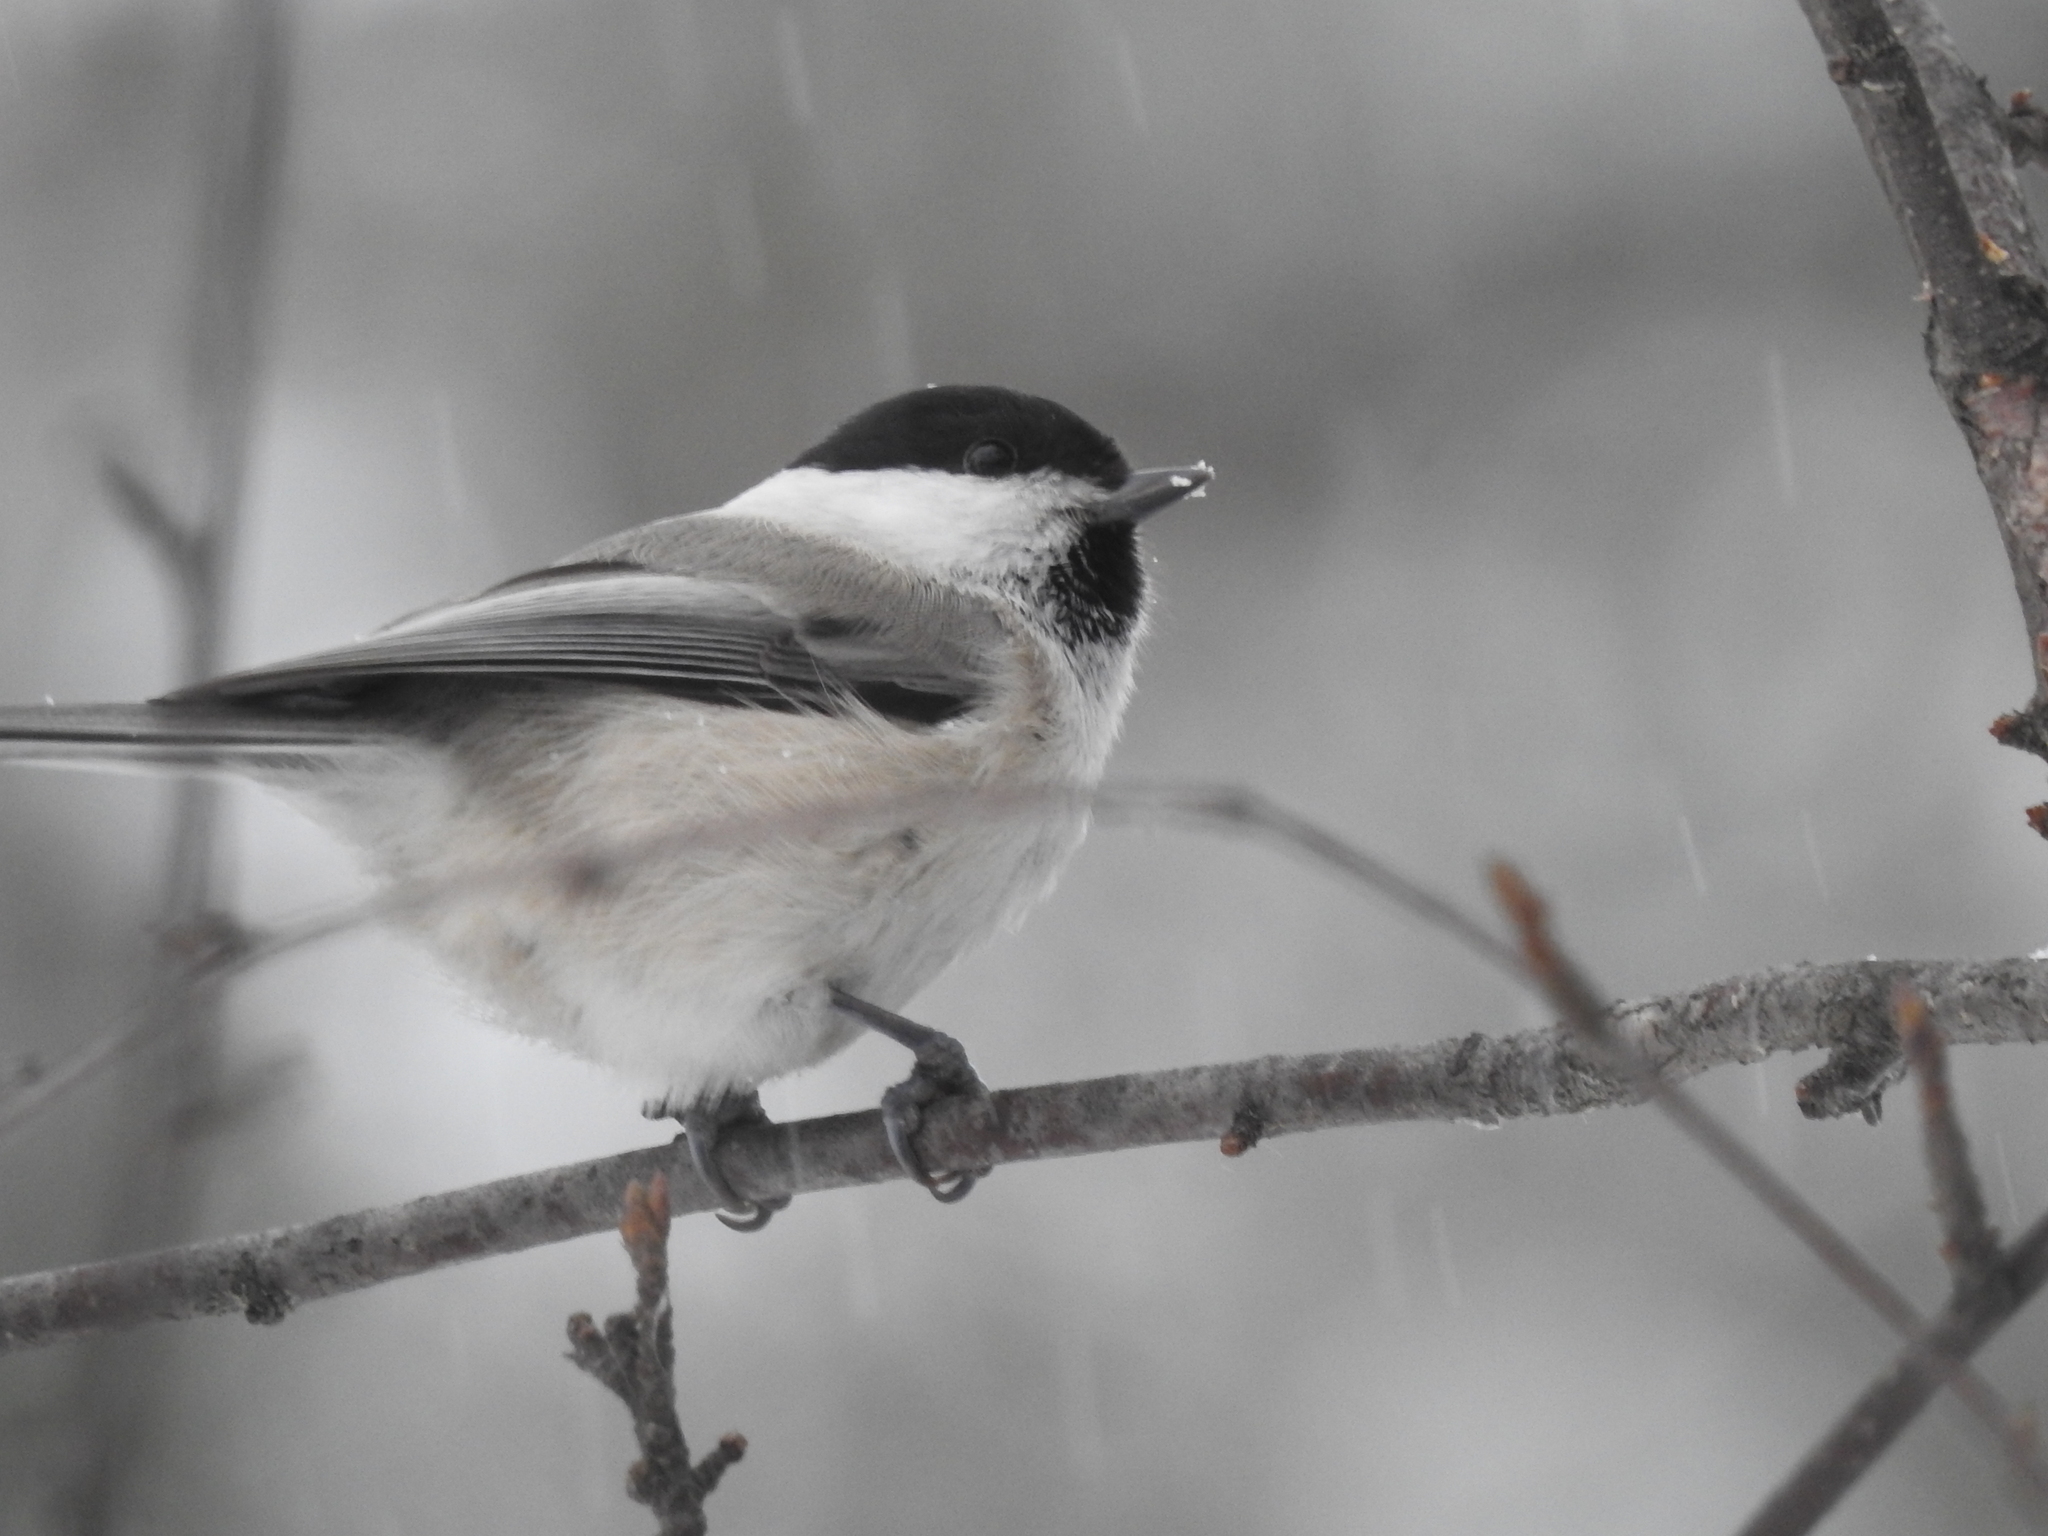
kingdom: Animalia
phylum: Chordata
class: Aves
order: Passeriformes
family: Paridae
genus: Poecile
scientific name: Poecile montanus
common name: Willow tit
